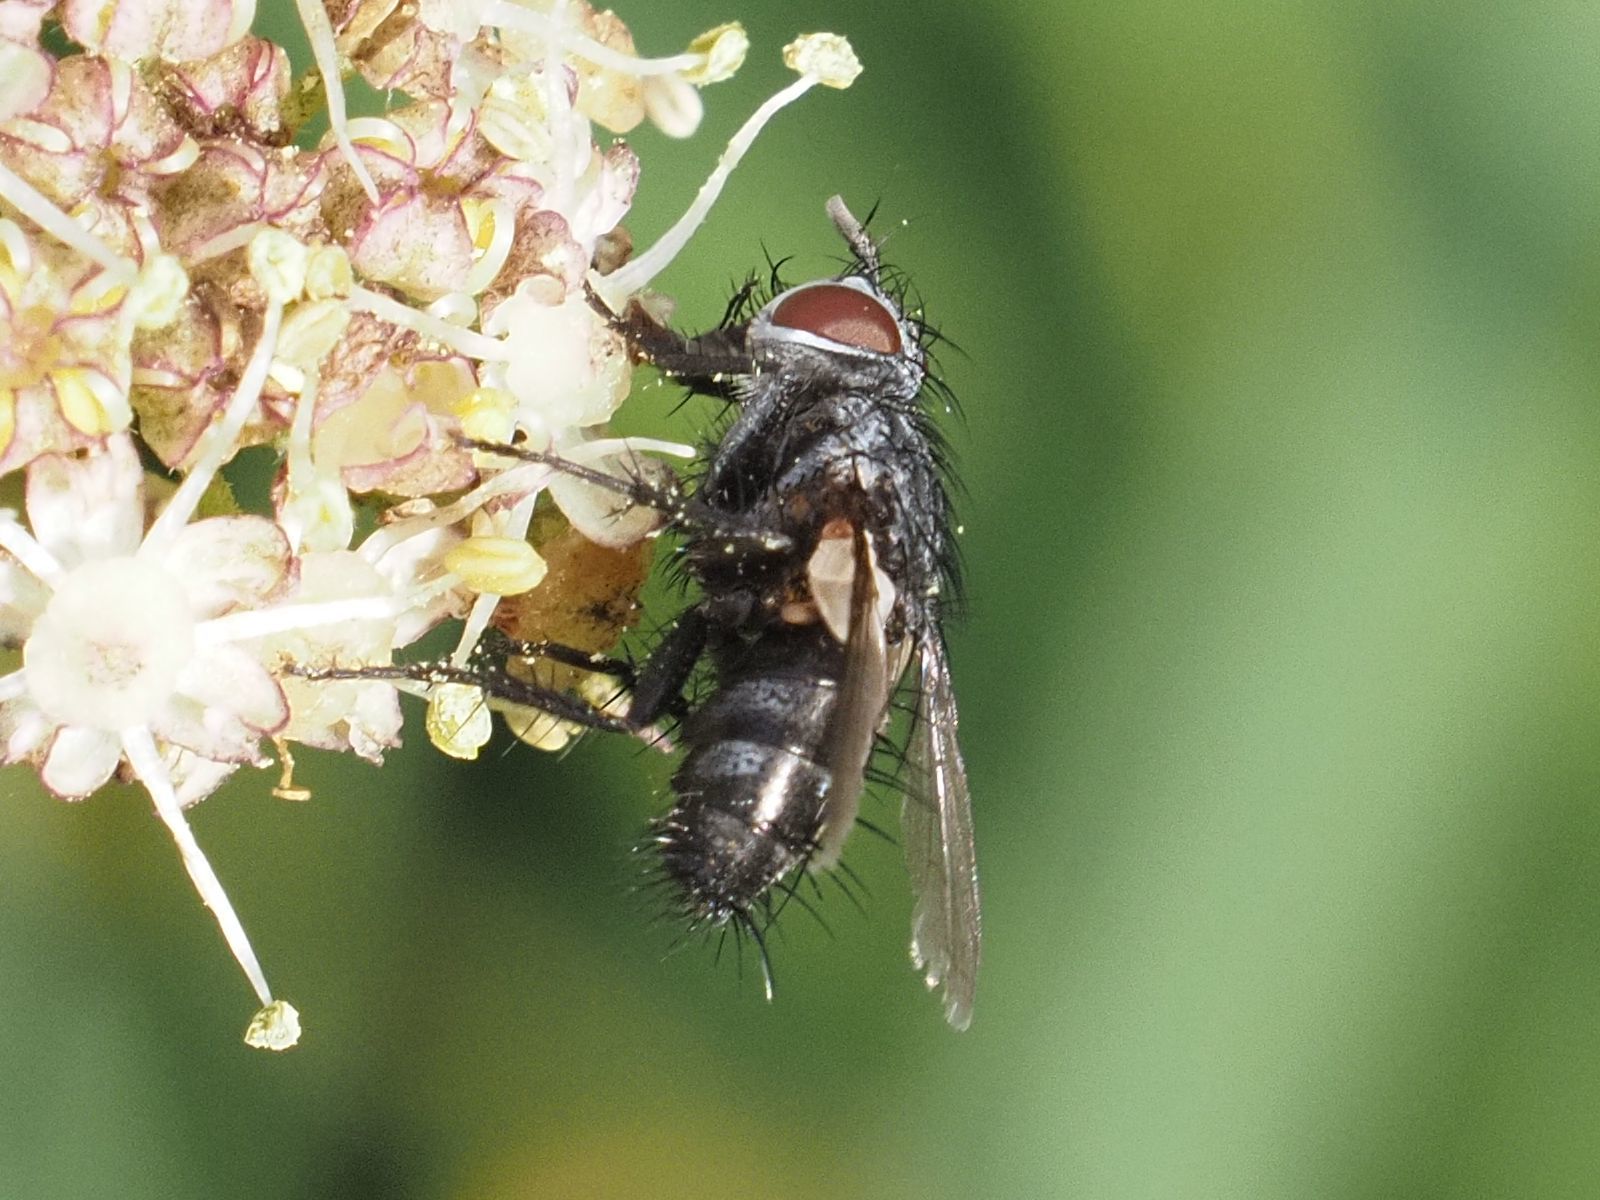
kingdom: Animalia
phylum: Arthropoda
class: Insecta
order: Diptera
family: Tachinidae
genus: Voria
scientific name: Voria ruralis
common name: Parasitic fly
